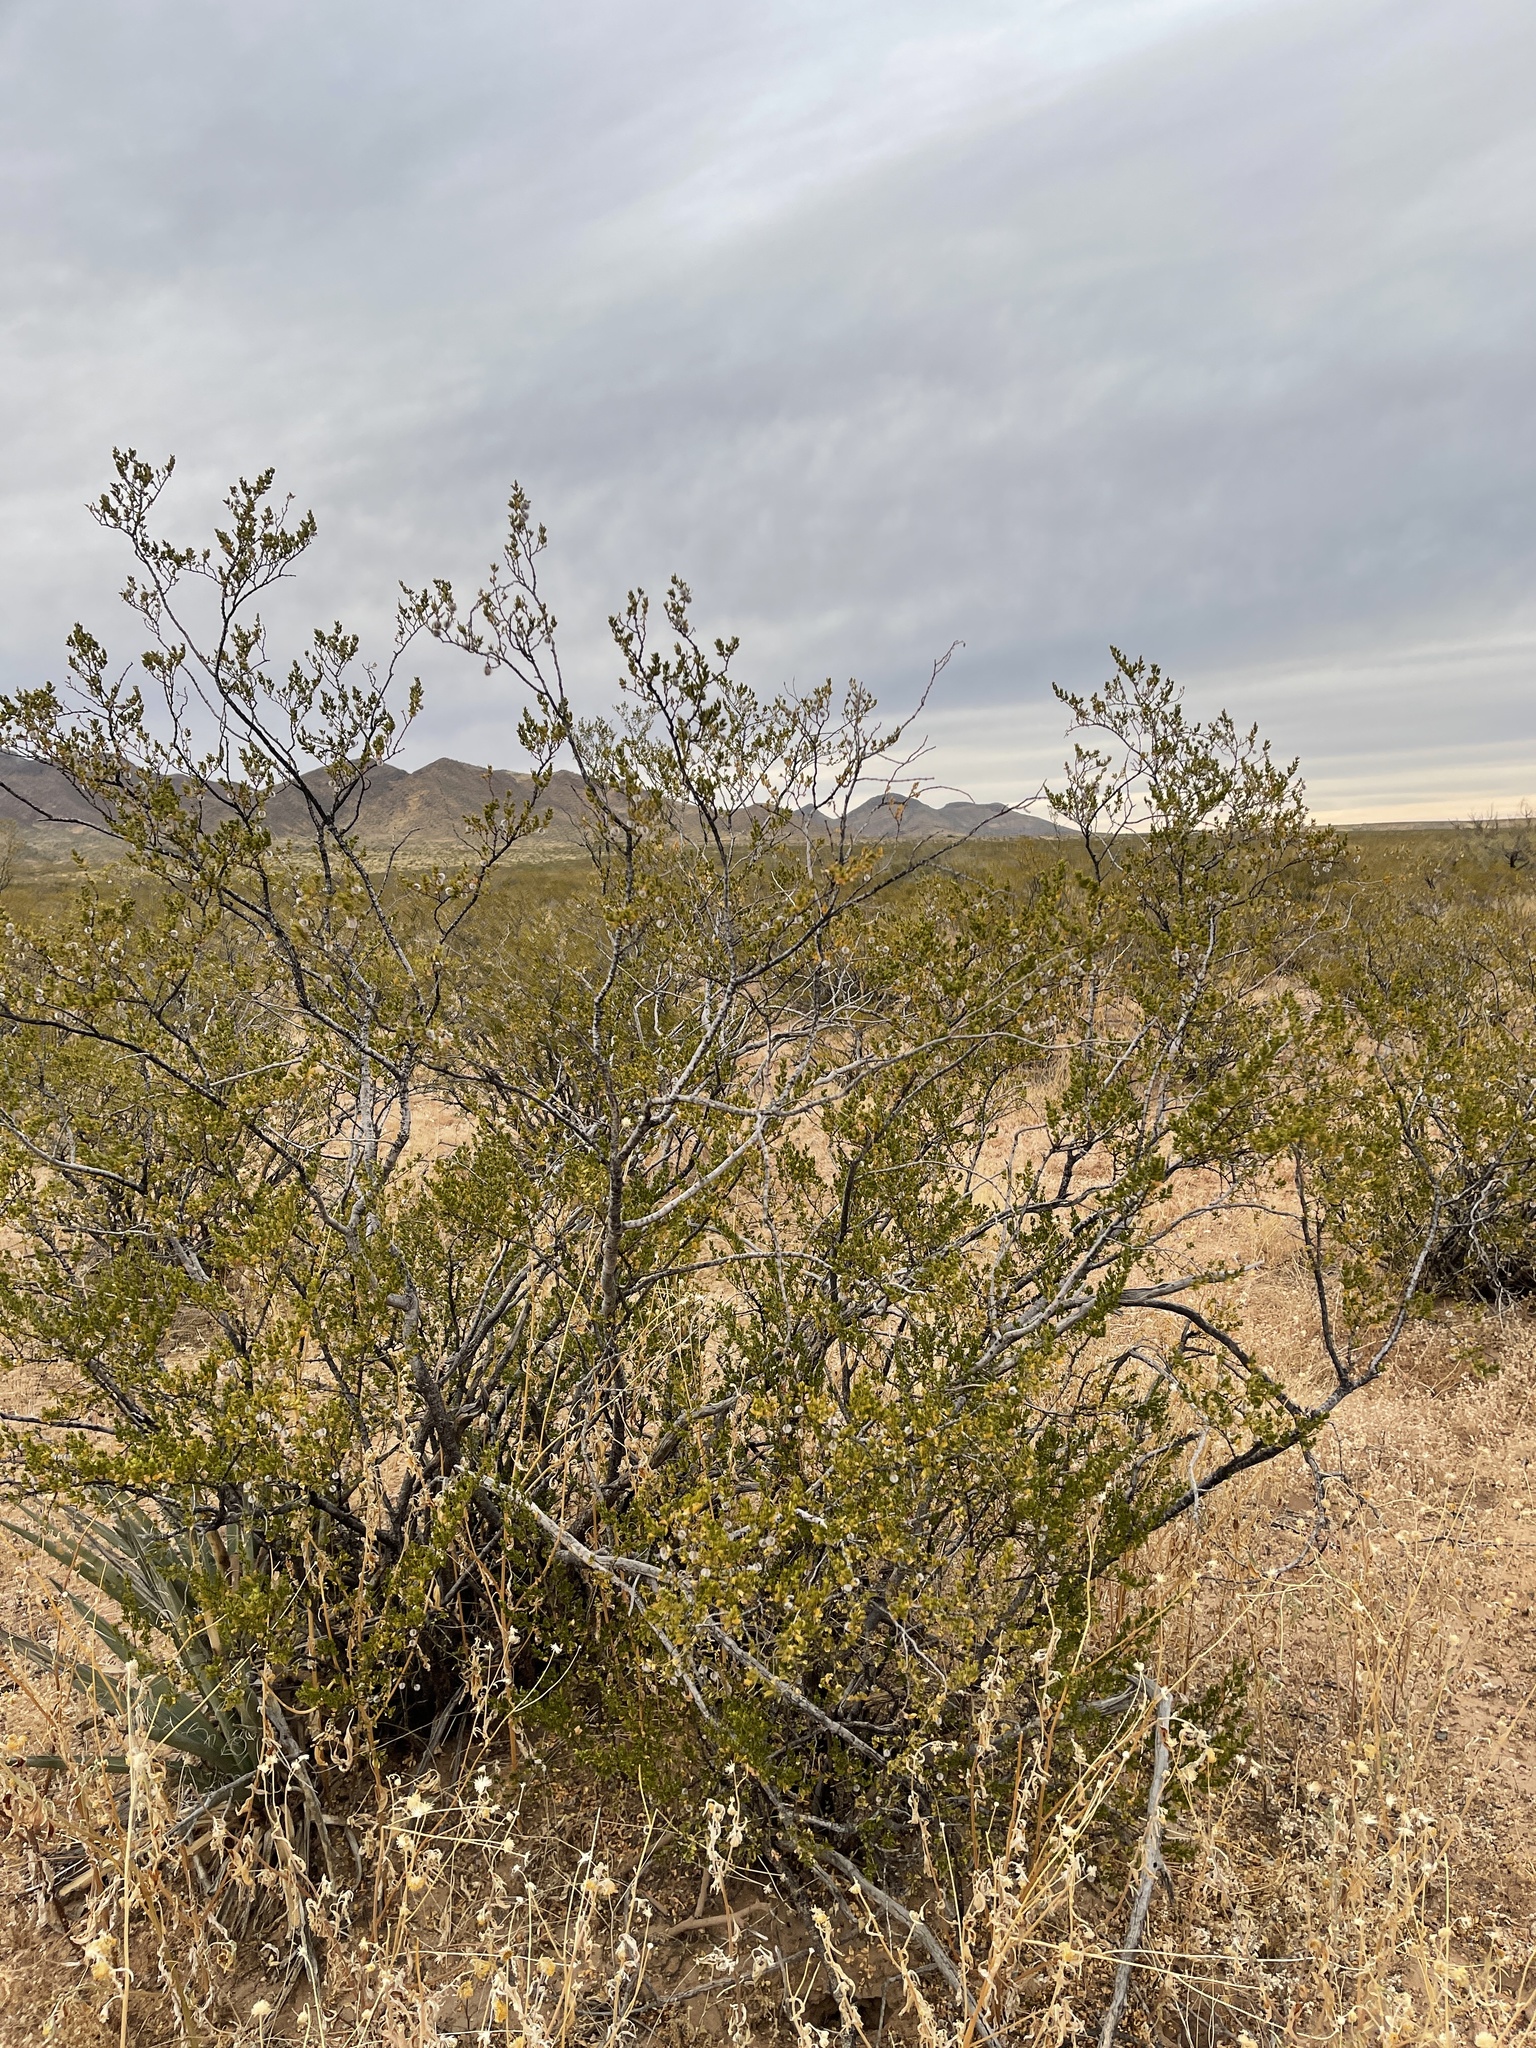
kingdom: Plantae
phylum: Tracheophyta
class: Magnoliopsida
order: Zygophyllales
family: Zygophyllaceae
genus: Larrea
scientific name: Larrea tridentata
